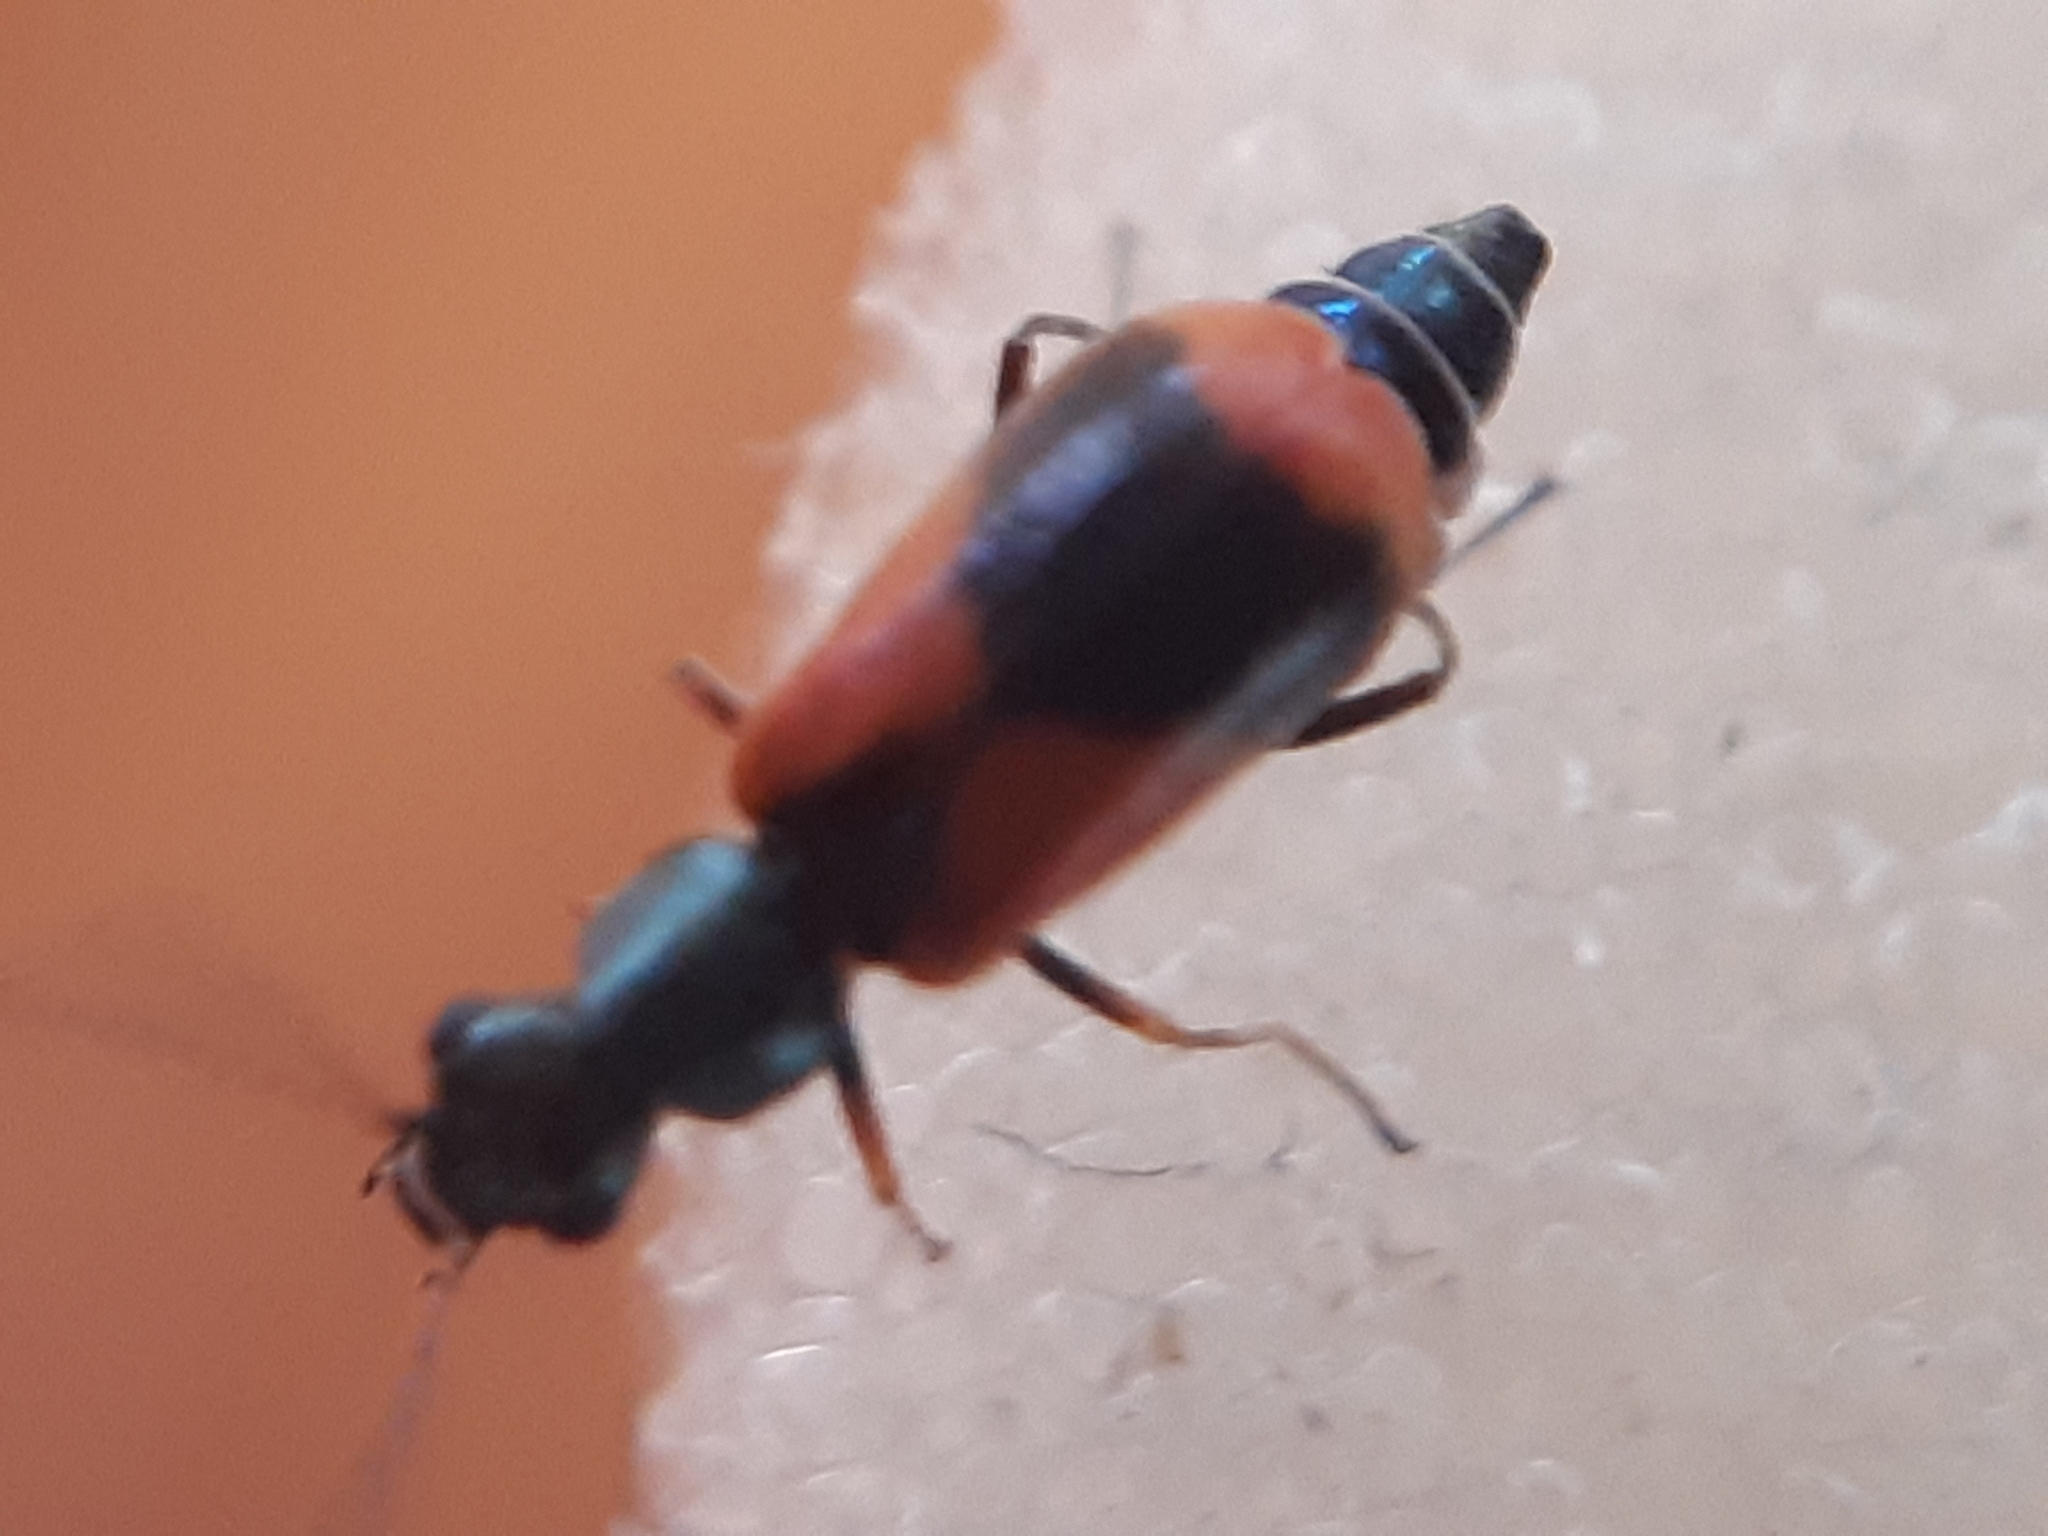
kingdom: Animalia
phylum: Arthropoda
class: Insecta
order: Coleoptera
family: Melyridae
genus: Anthocomus
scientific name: Anthocomus equestris
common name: Black-banded soft-winged flower beetle
